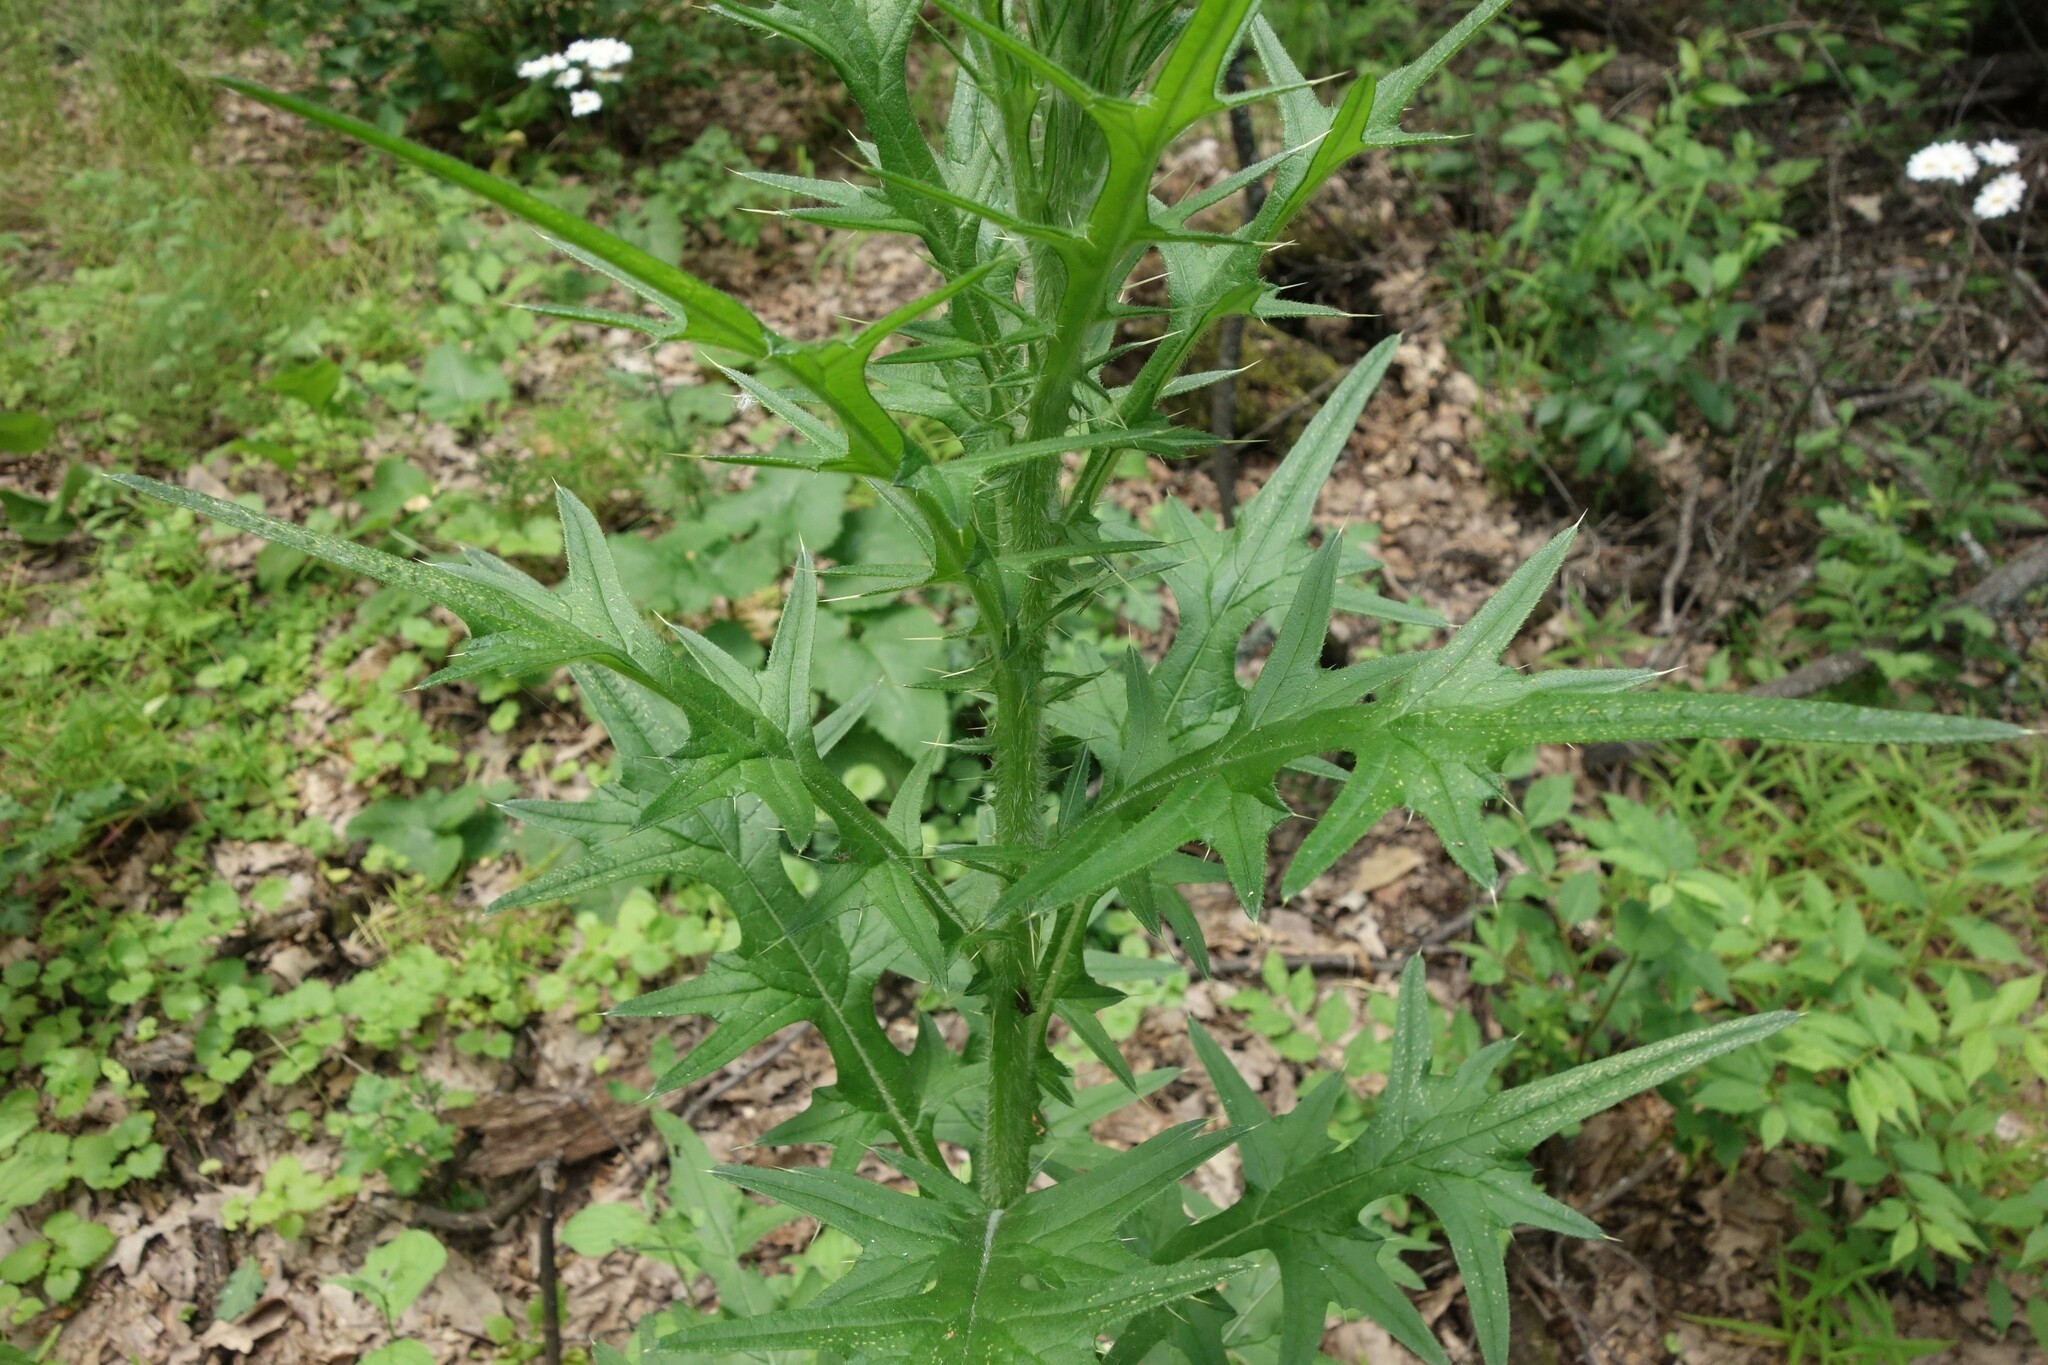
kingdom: Plantae
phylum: Tracheophyta
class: Magnoliopsida
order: Asterales
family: Asteraceae
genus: Cirsium
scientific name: Cirsium vulgare
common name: Bull thistle
